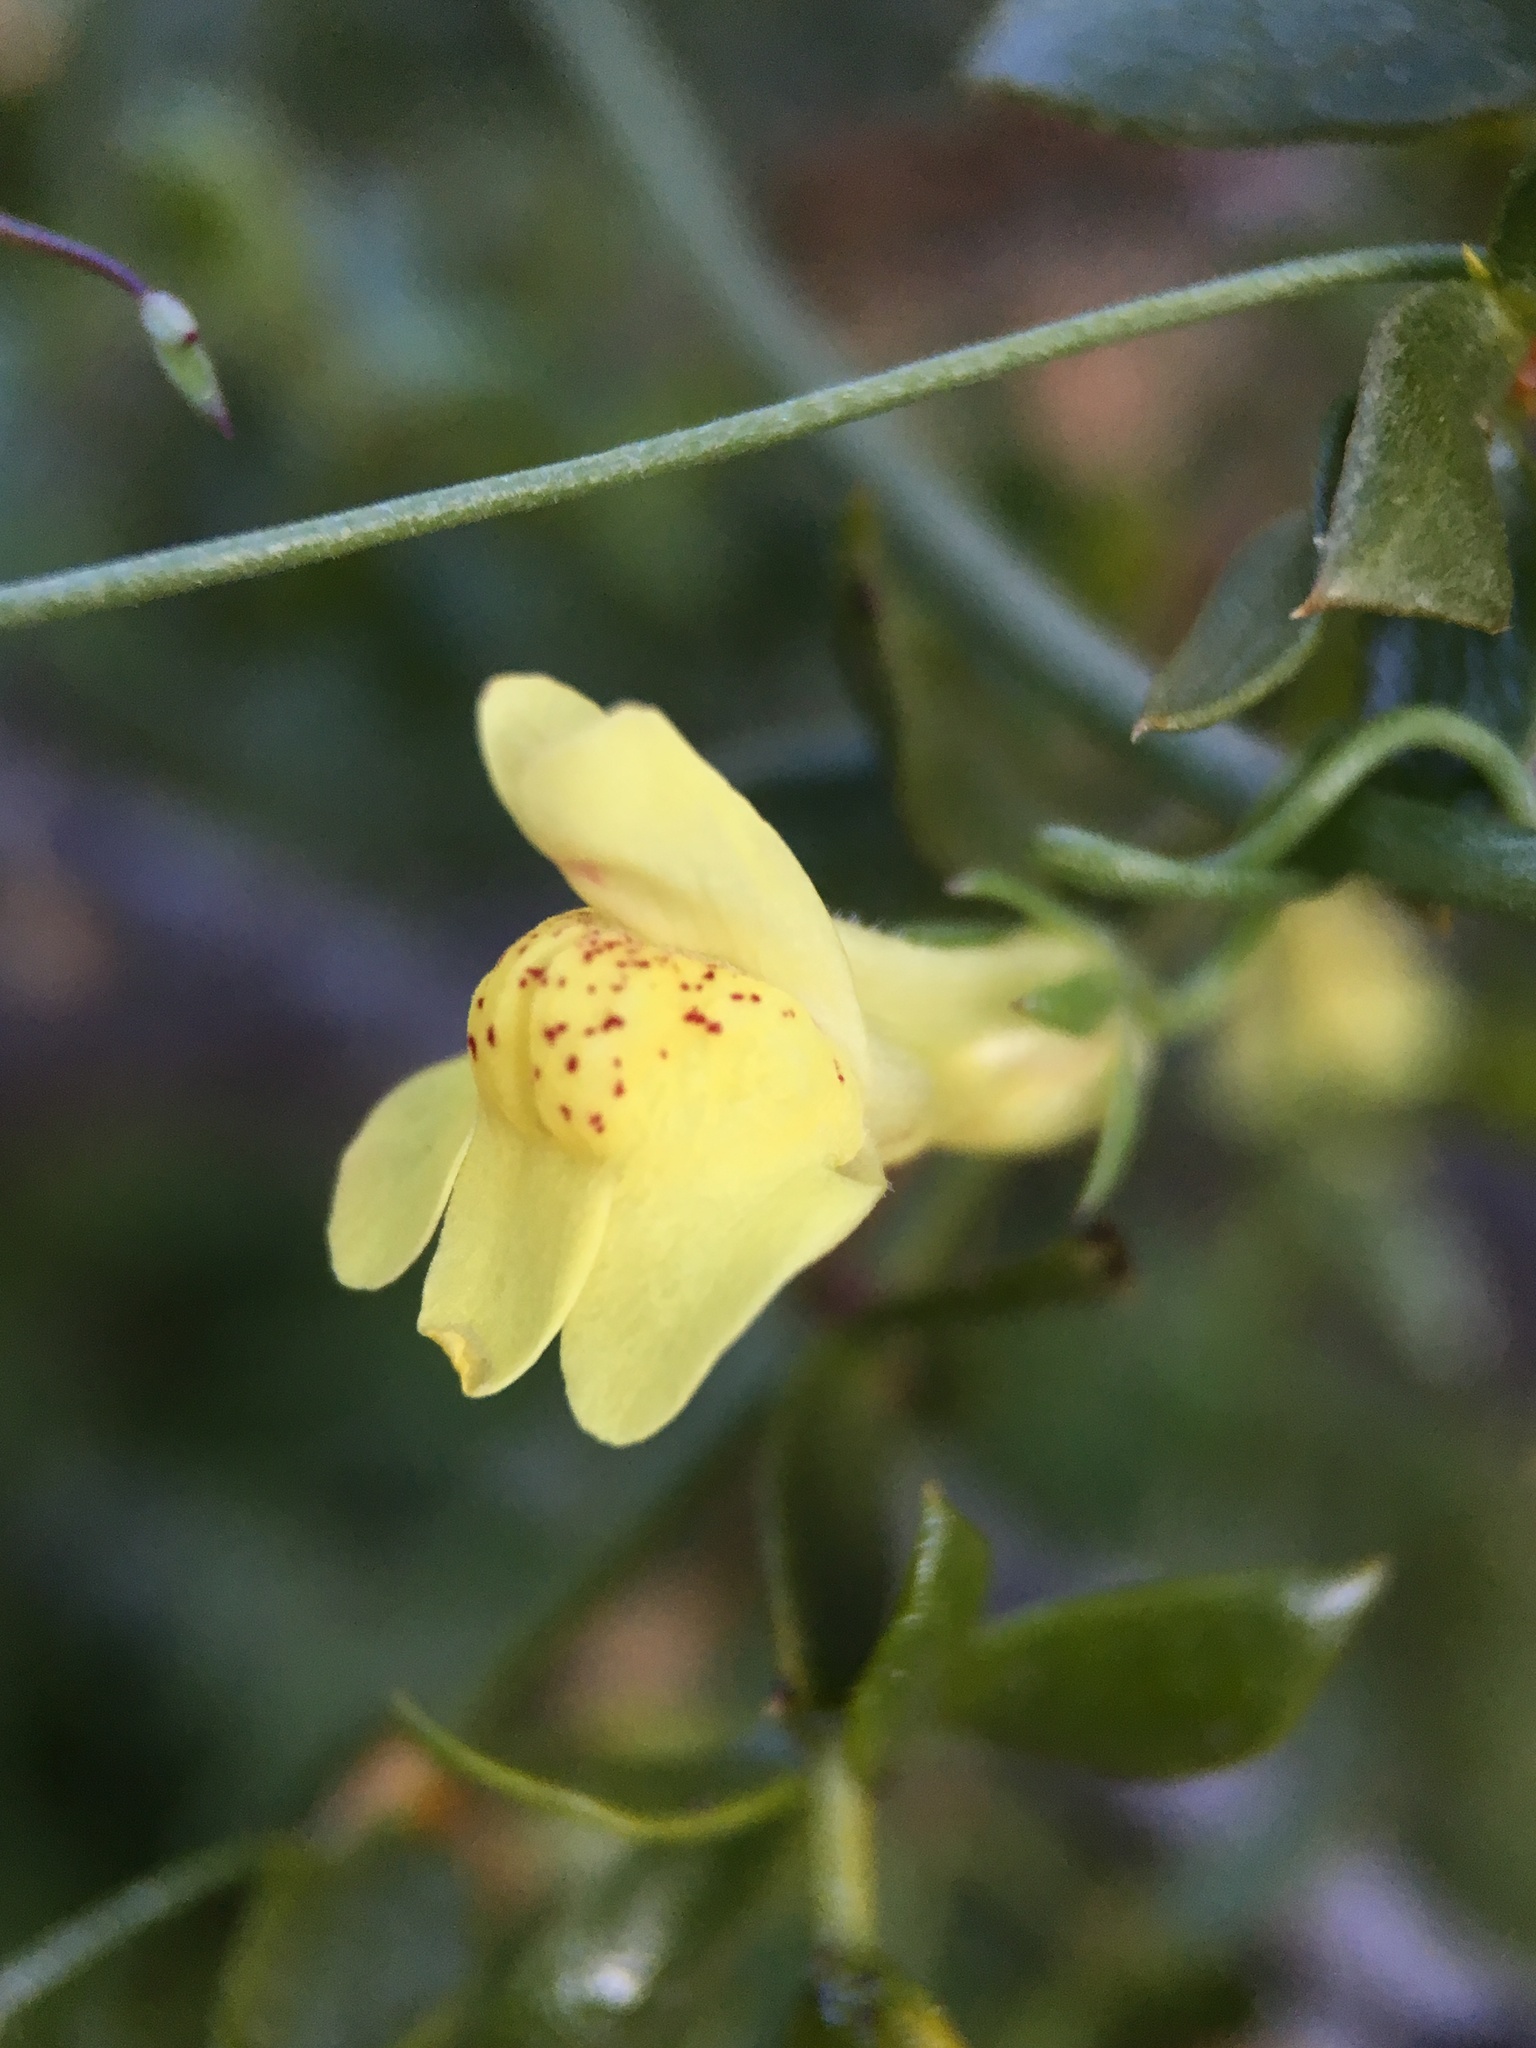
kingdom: Plantae
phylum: Tracheophyta
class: Magnoliopsida
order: Lamiales
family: Plantaginaceae
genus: Neogaerrhinum
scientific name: Neogaerrhinum filipes
